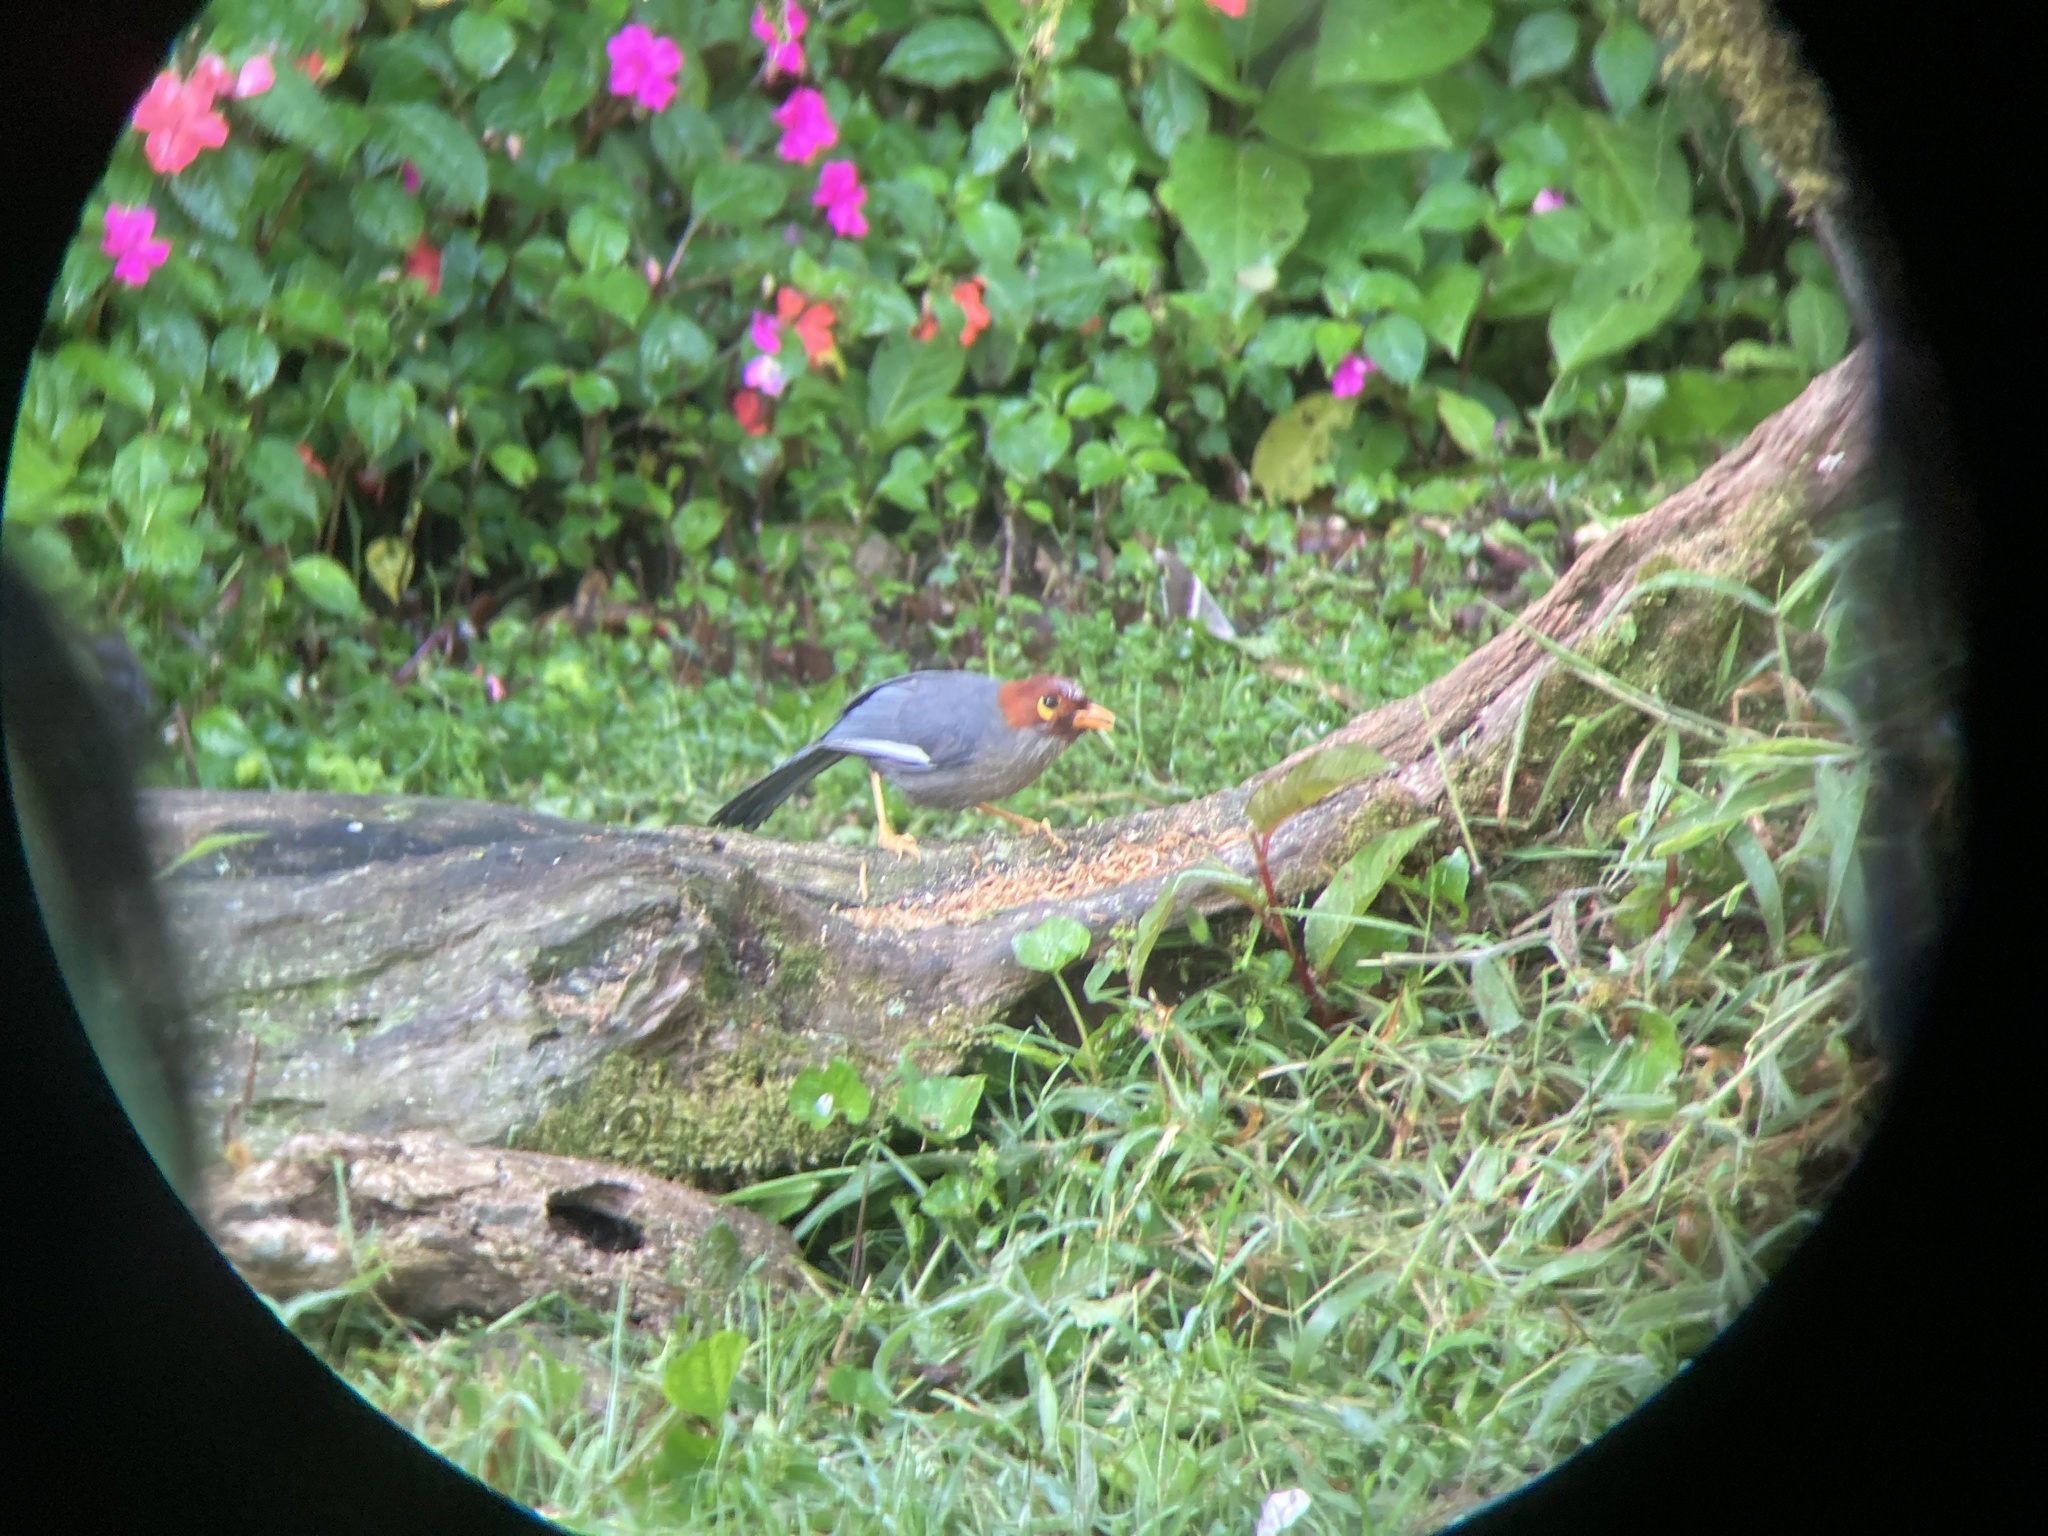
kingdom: Animalia
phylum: Chordata
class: Aves
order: Passeriformes
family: Leiothrichidae
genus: Garrulax
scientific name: Garrulax treacheri
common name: Chestnut-hooded laughingthrush
